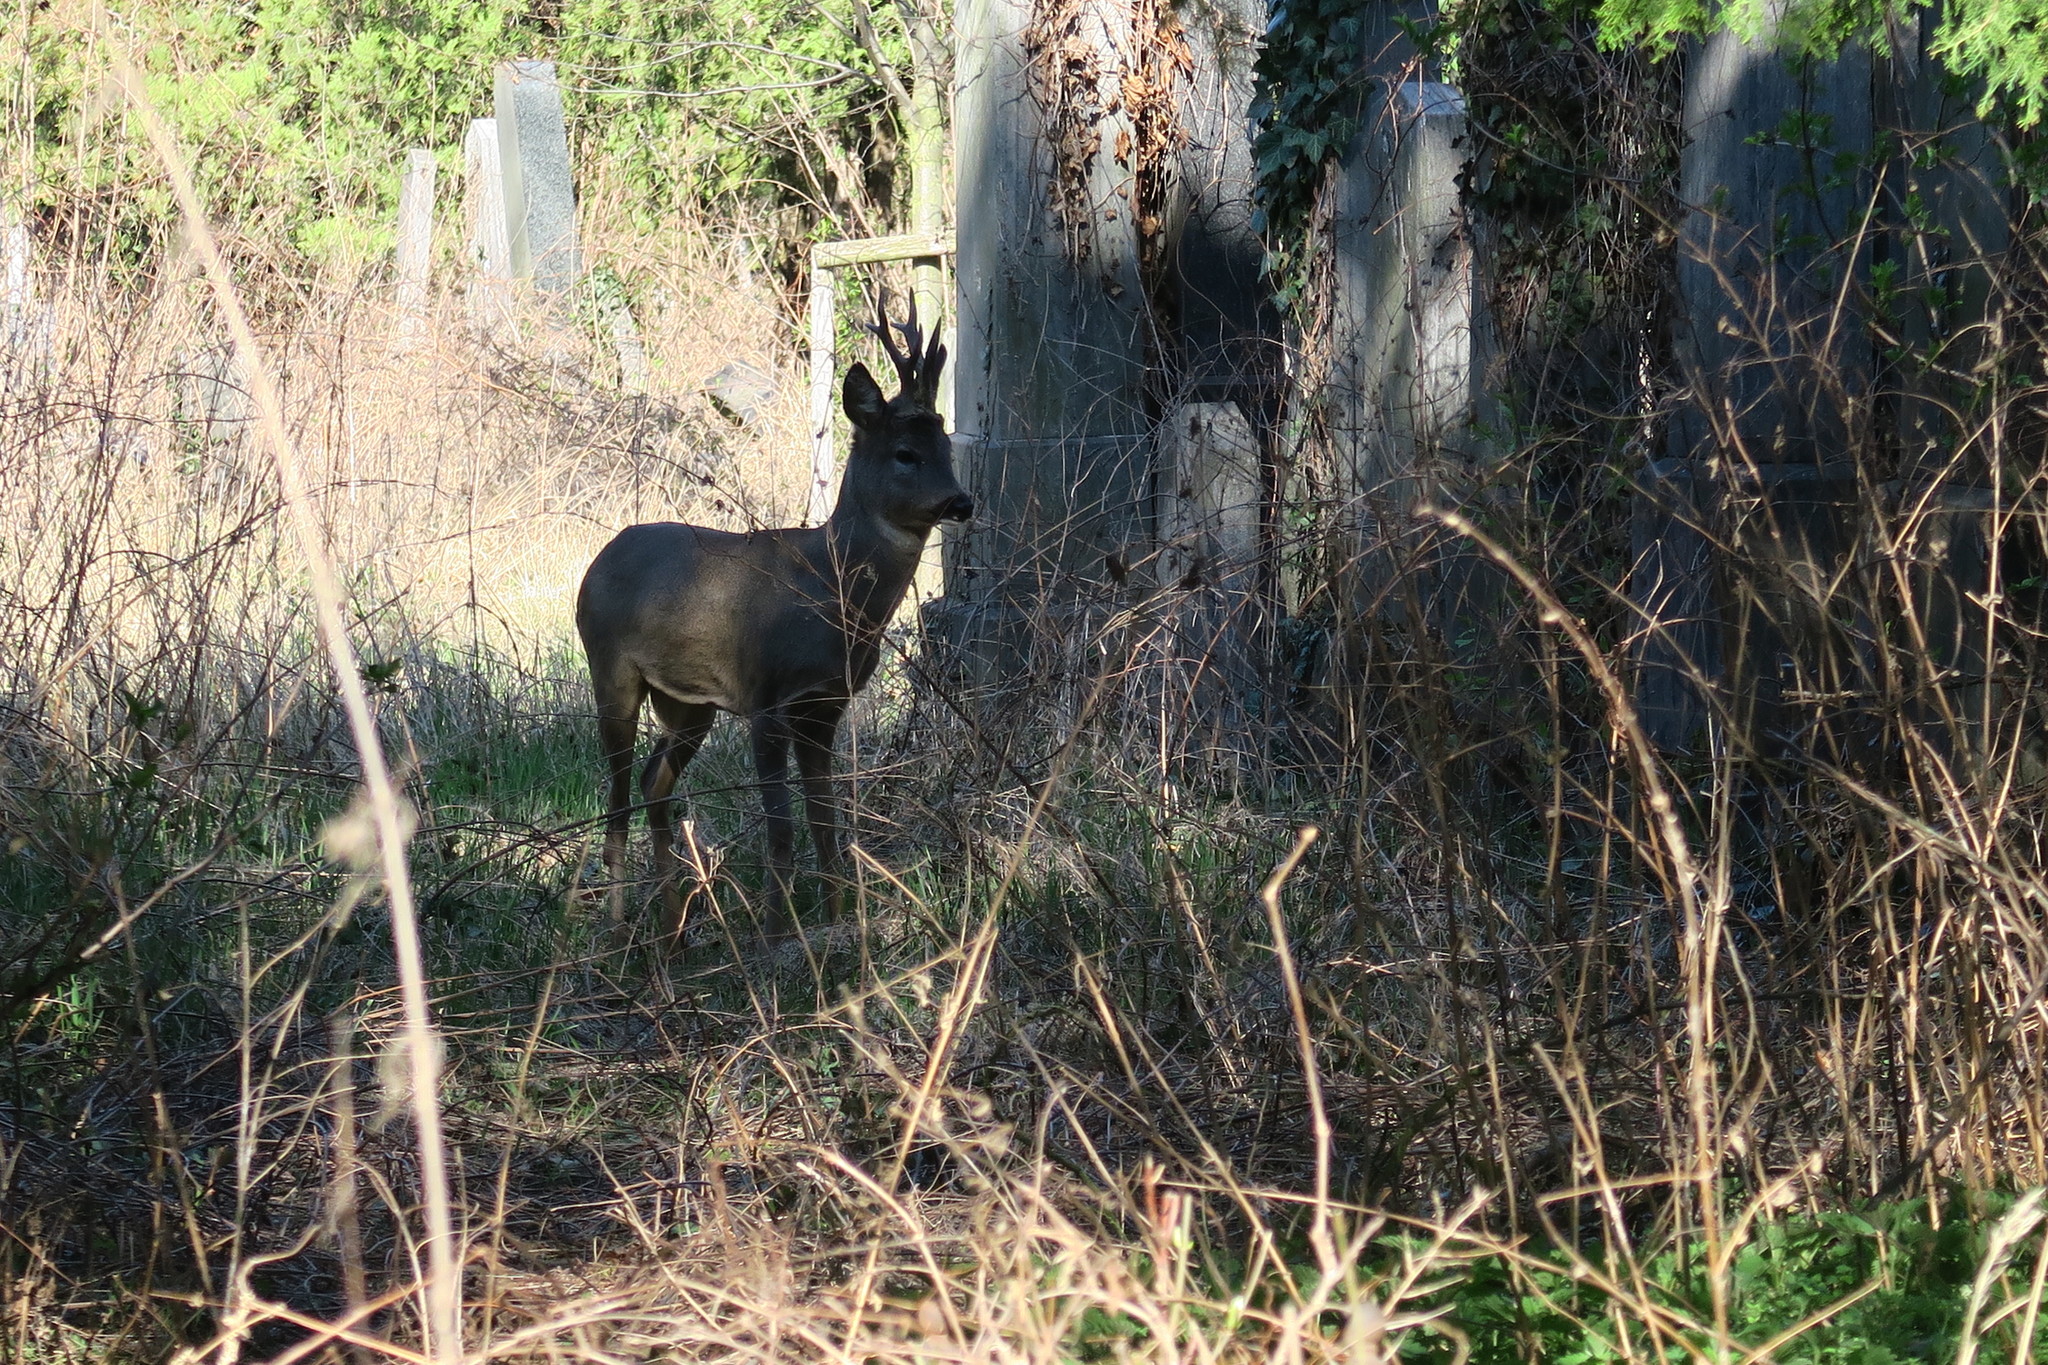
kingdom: Animalia
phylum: Chordata
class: Mammalia
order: Artiodactyla
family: Cervidae
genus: Capreolus
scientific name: Capreolus capreolus
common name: Western roe deer
